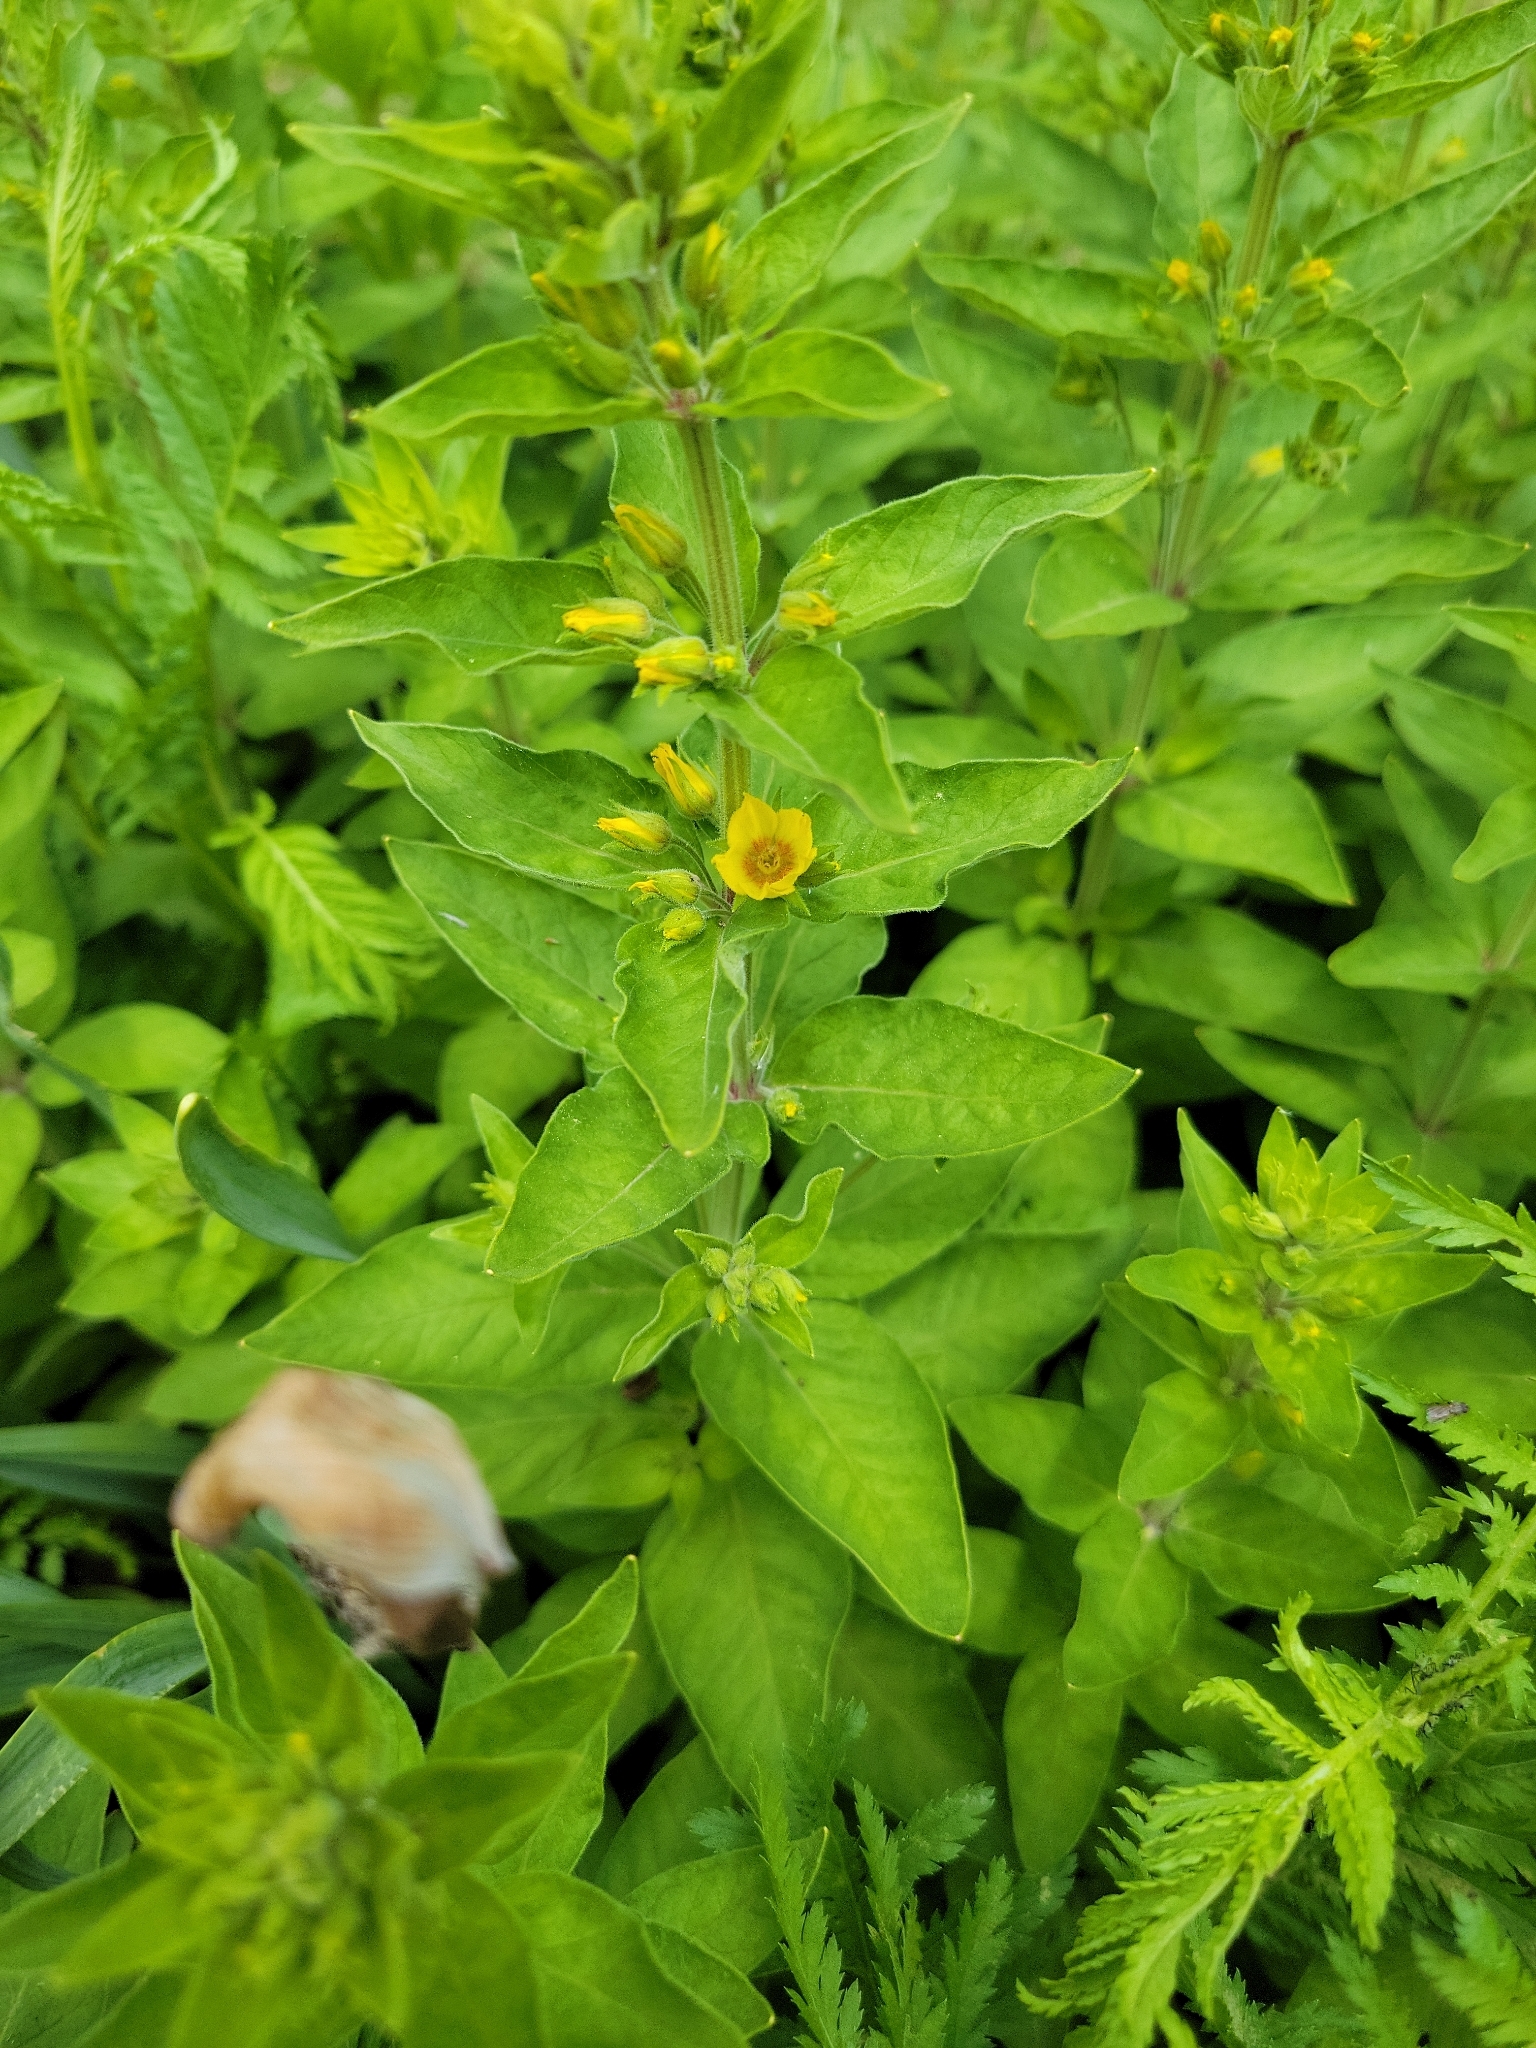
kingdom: Plantae
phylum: Tracheophyta
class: Magnoliopsida
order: Ericales
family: Primulaceae
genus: Lysimachia
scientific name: Lysimachia punctata
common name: Dotted loosestrife
